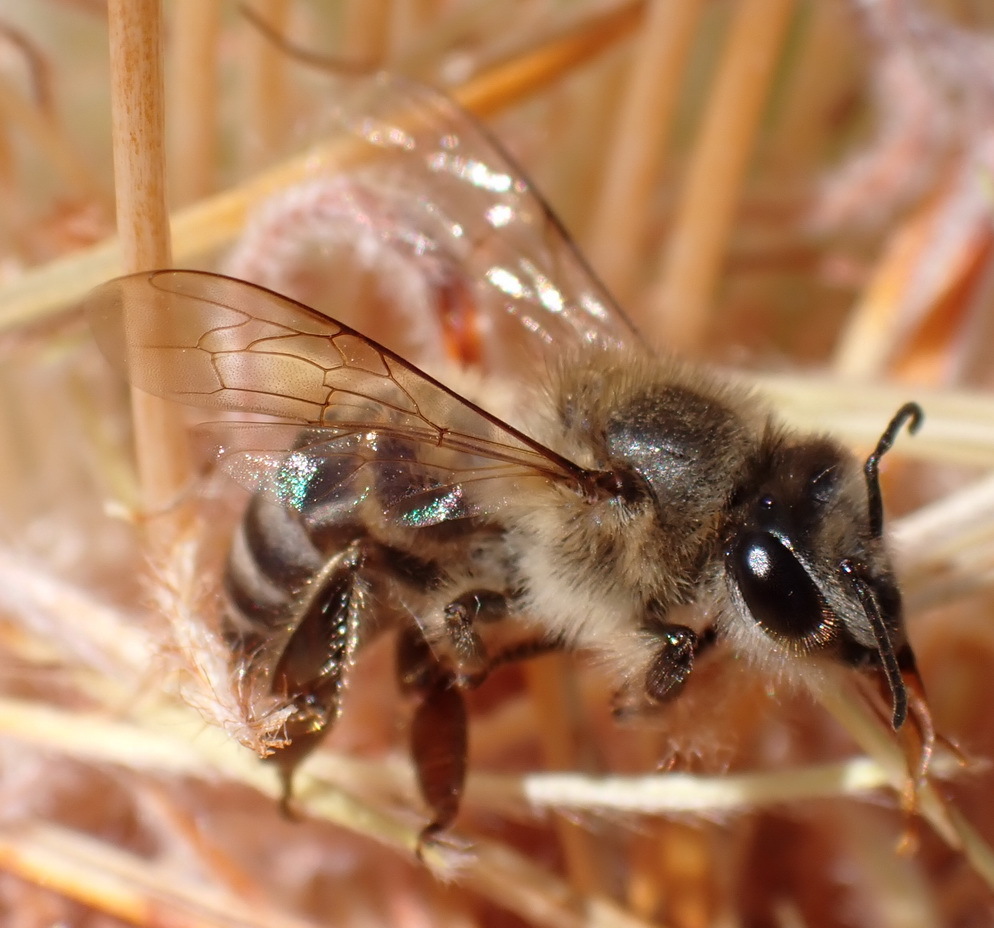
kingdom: Animalia
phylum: Arthropoda
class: Insecta
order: Hymenoptera
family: Apidae
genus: Apis
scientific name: Apis mellifera
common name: Honey bee
